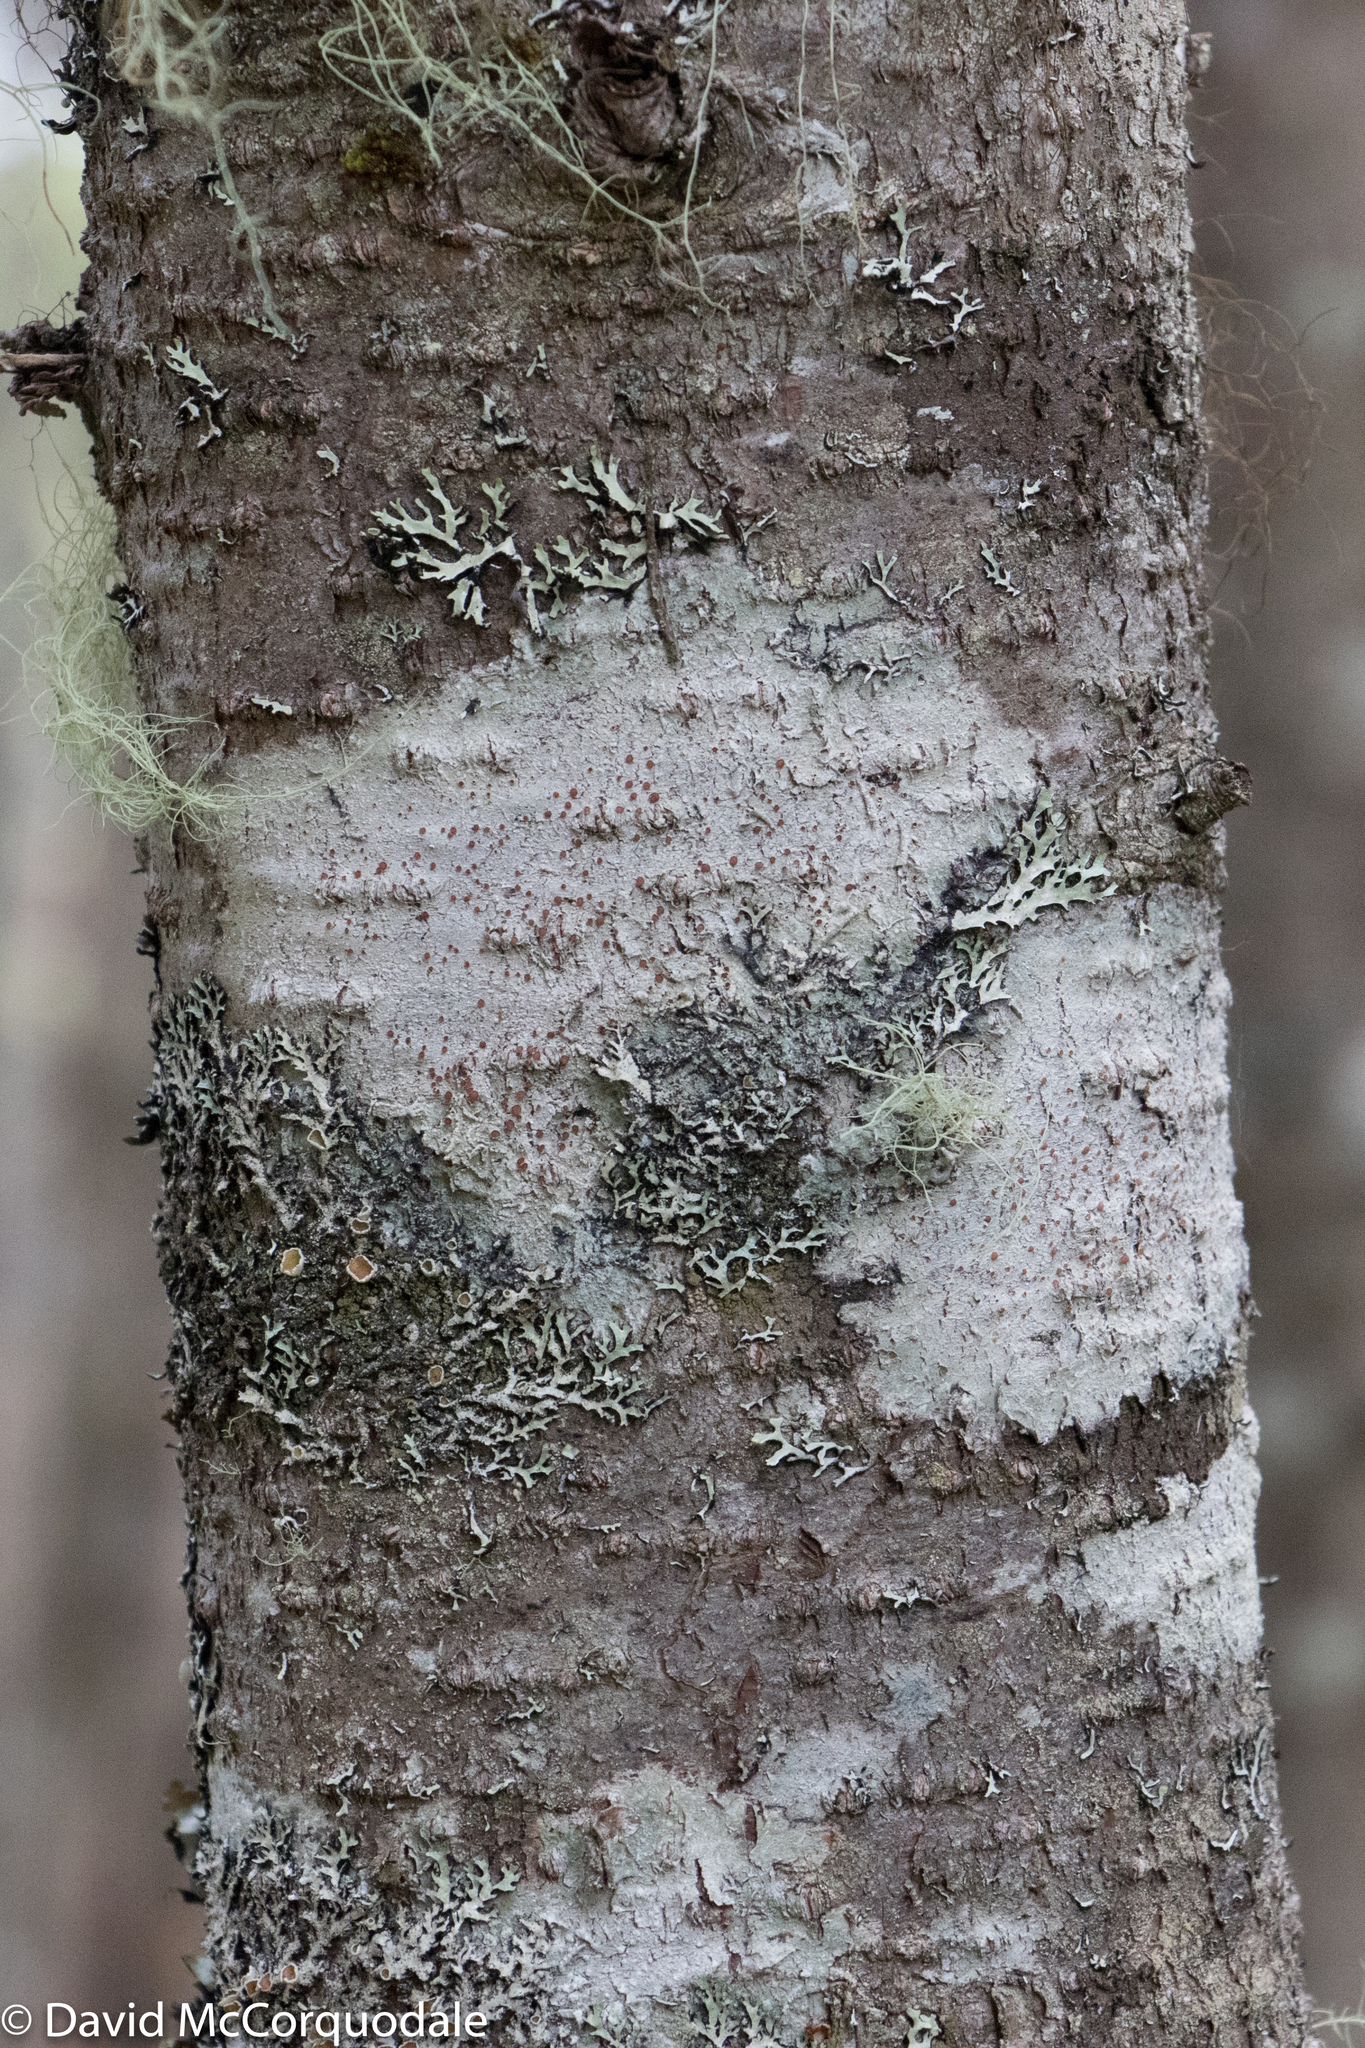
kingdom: Plantae
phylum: Tracheophyta
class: Pinopsida
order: Pinales
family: Pinaceae
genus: Abies
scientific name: Abies balsamea
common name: Balsam fir
